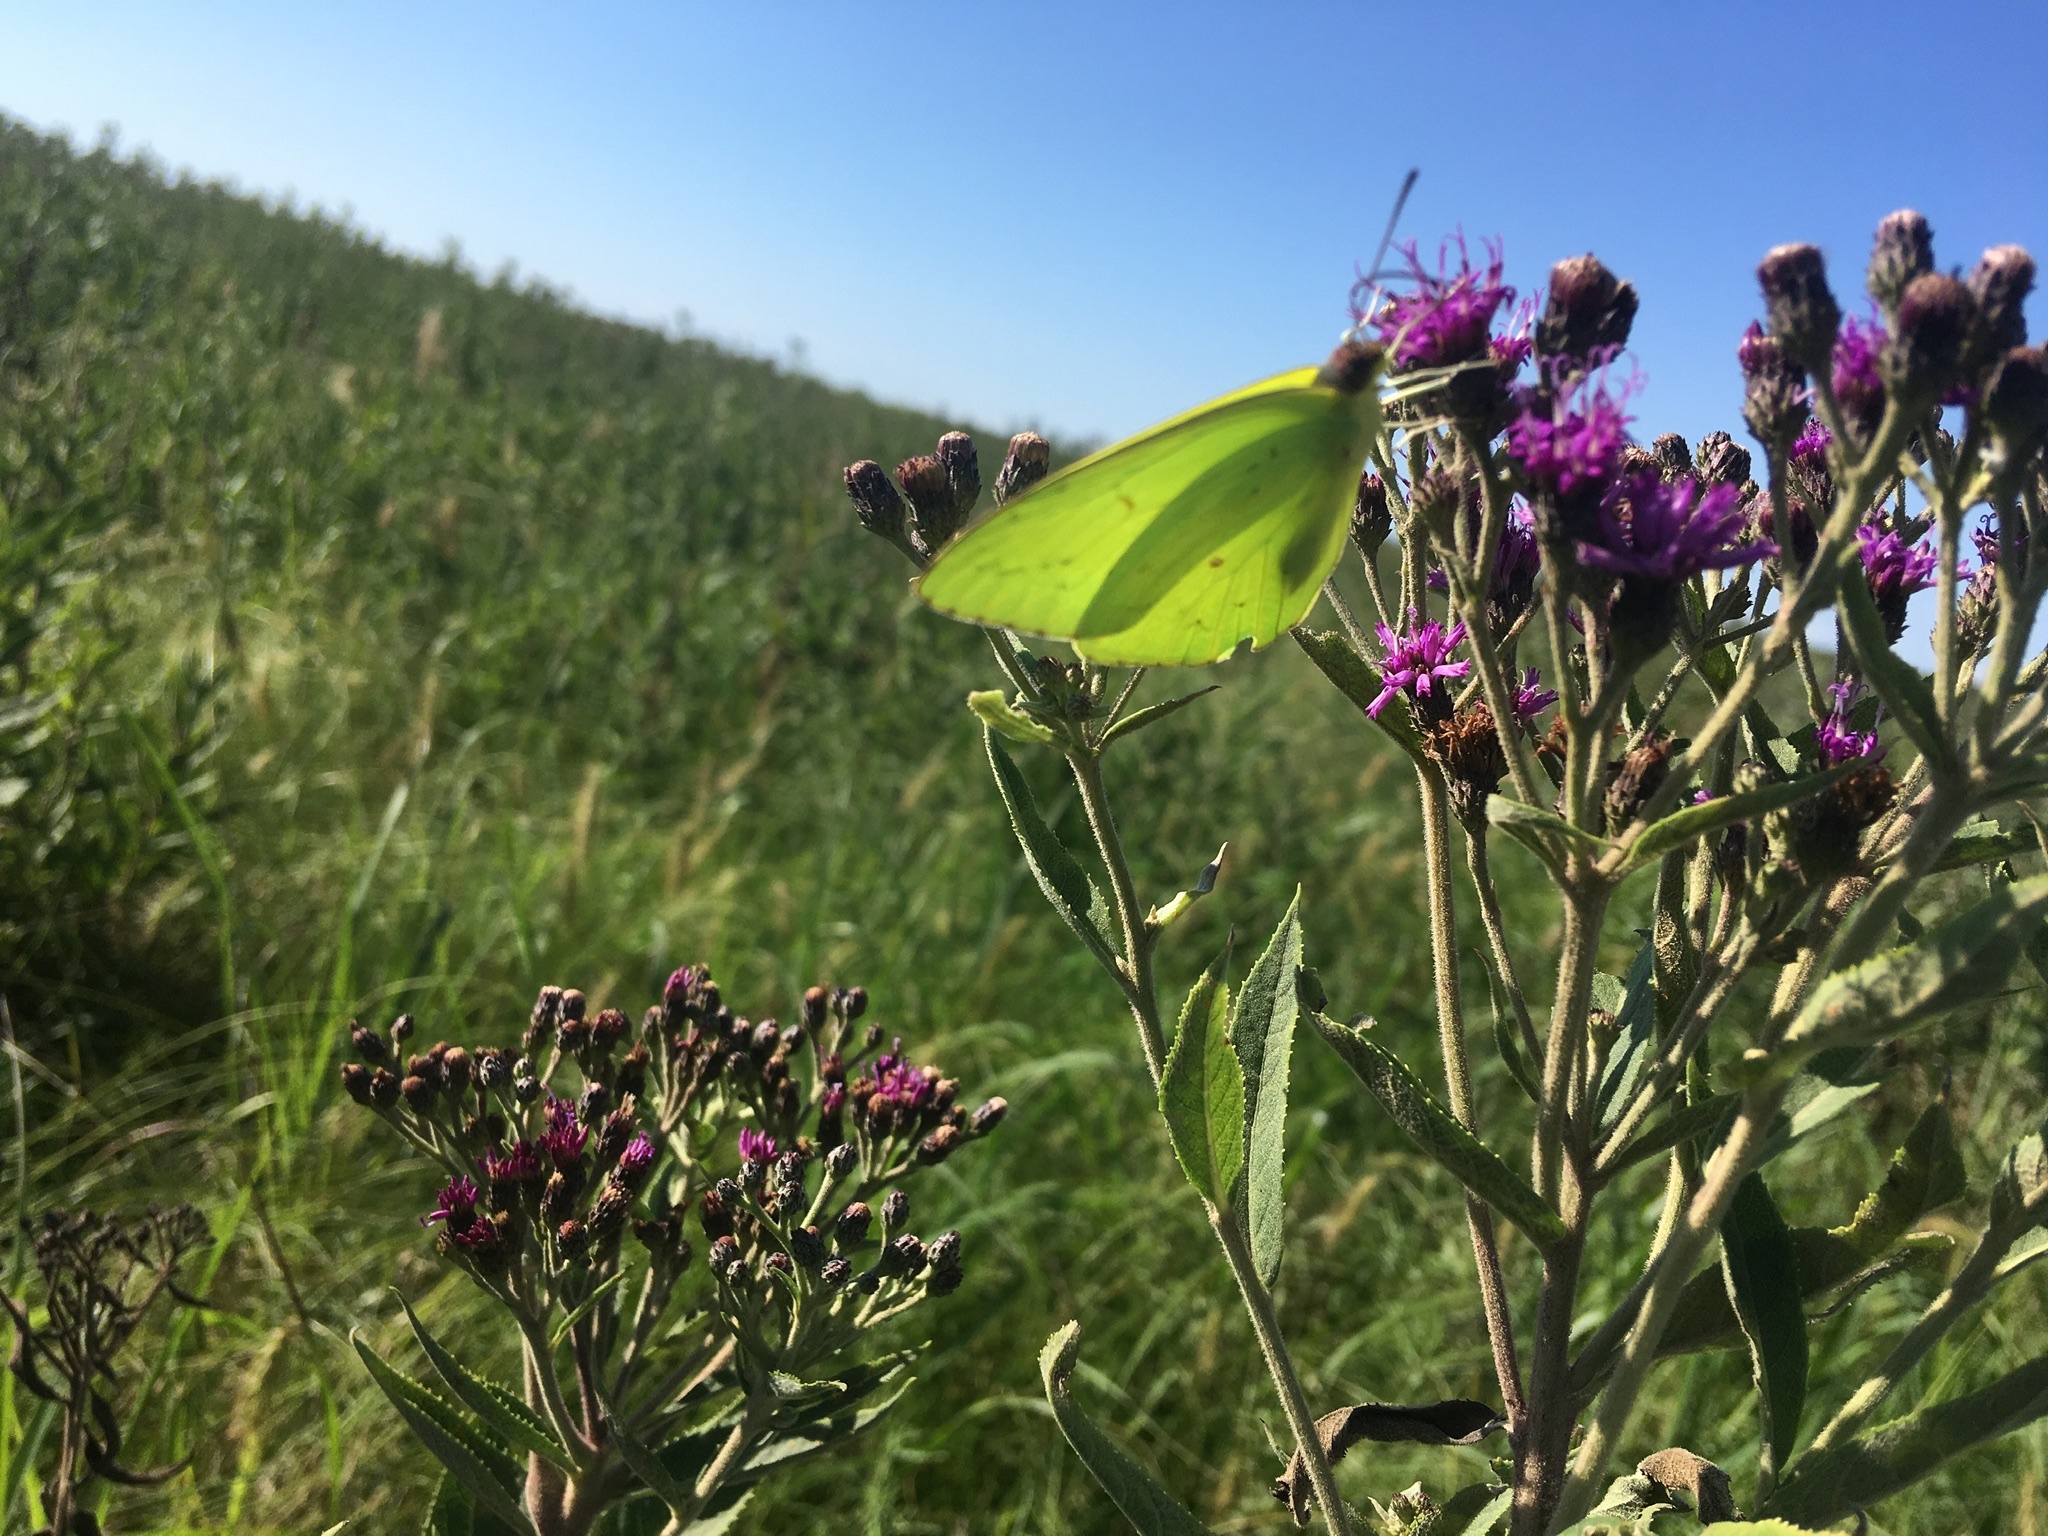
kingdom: Animalia
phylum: Arthropoda
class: Insecta
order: Lepidoptera
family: Pieridae
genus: Phoebis
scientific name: Phoebis sennae
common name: Cloudless sulphur
